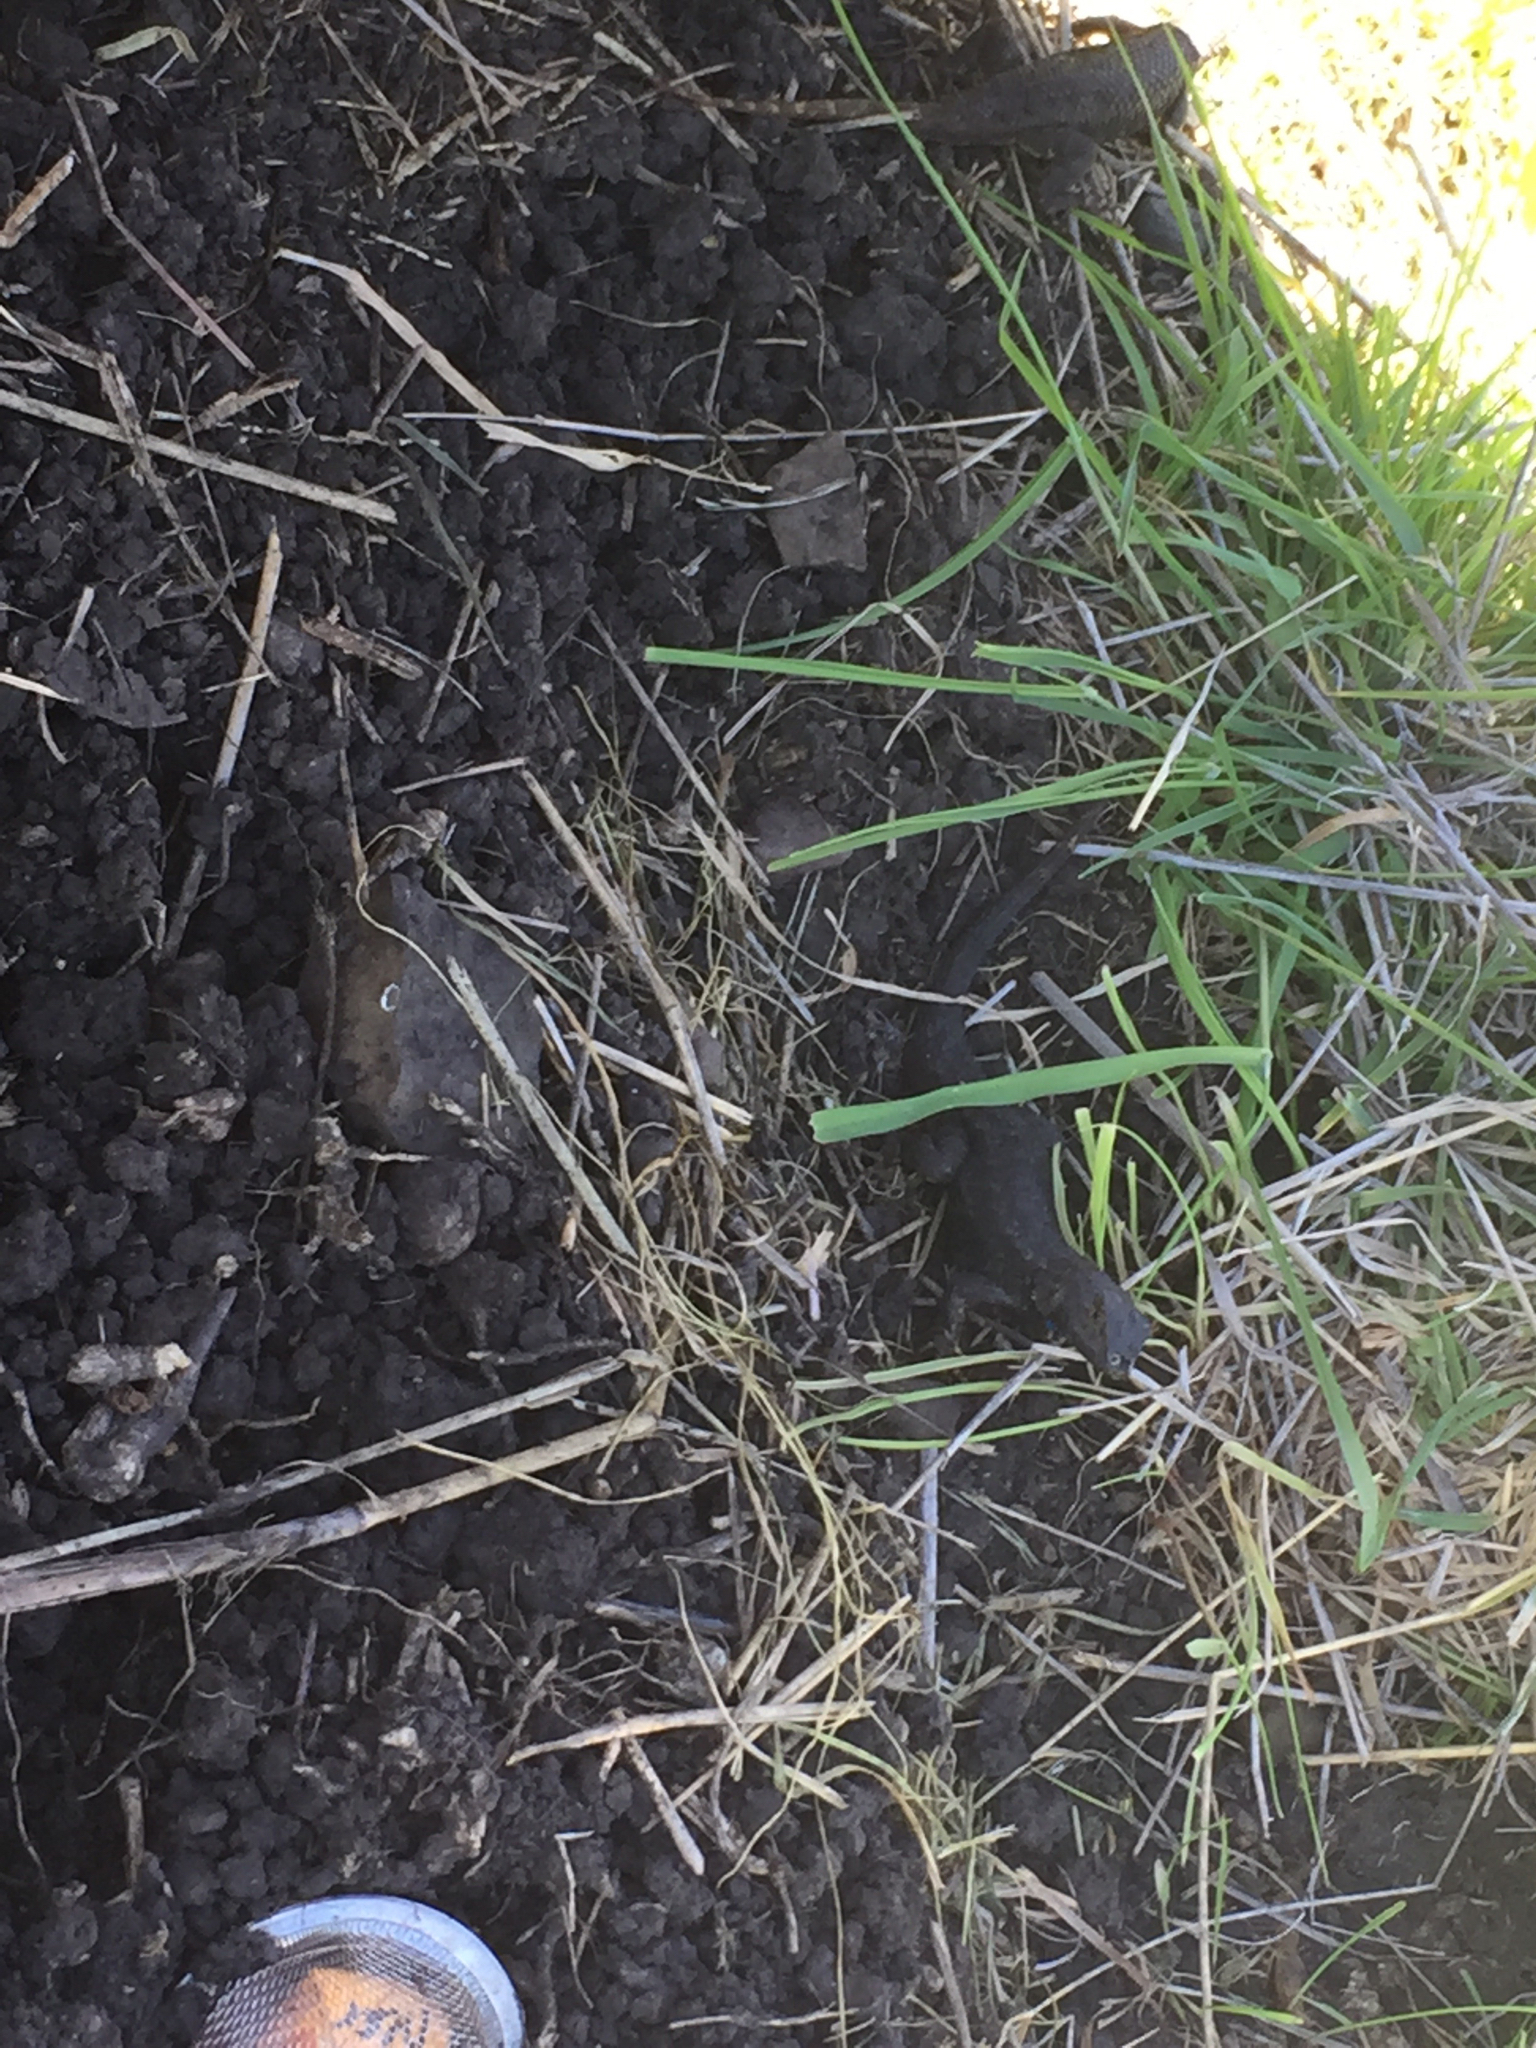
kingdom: Animalia
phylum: Chordata
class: Squamata
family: Phrynosomatidae
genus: Sceloporus
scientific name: Sceloporus occidentalis
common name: Western fence lizard
